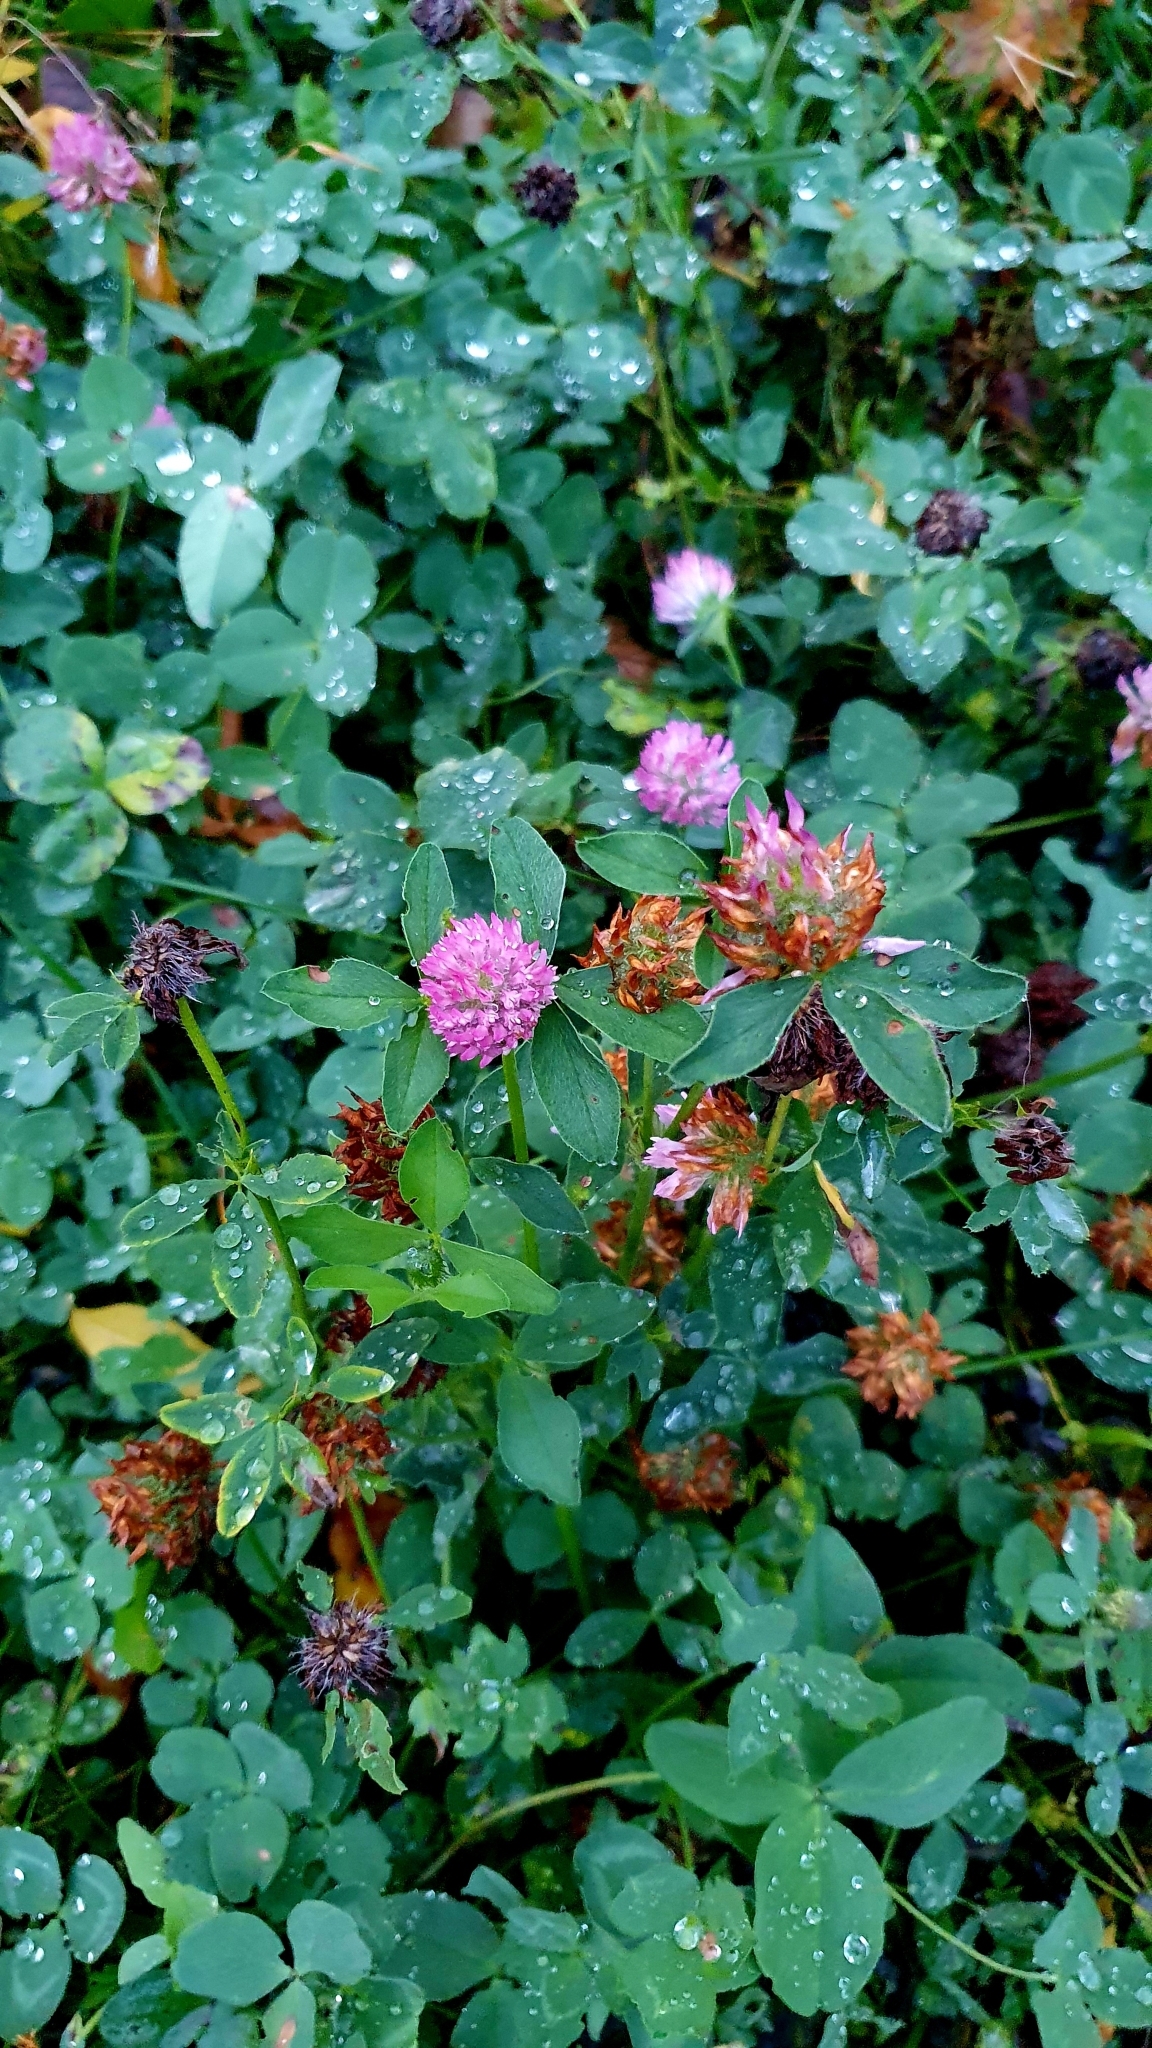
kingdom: Plantae
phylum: Tracheophyta
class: Magnoliopsida
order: Fabales
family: Fabaceae
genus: Trifolium
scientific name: Trifolium pratense
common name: Red clover
